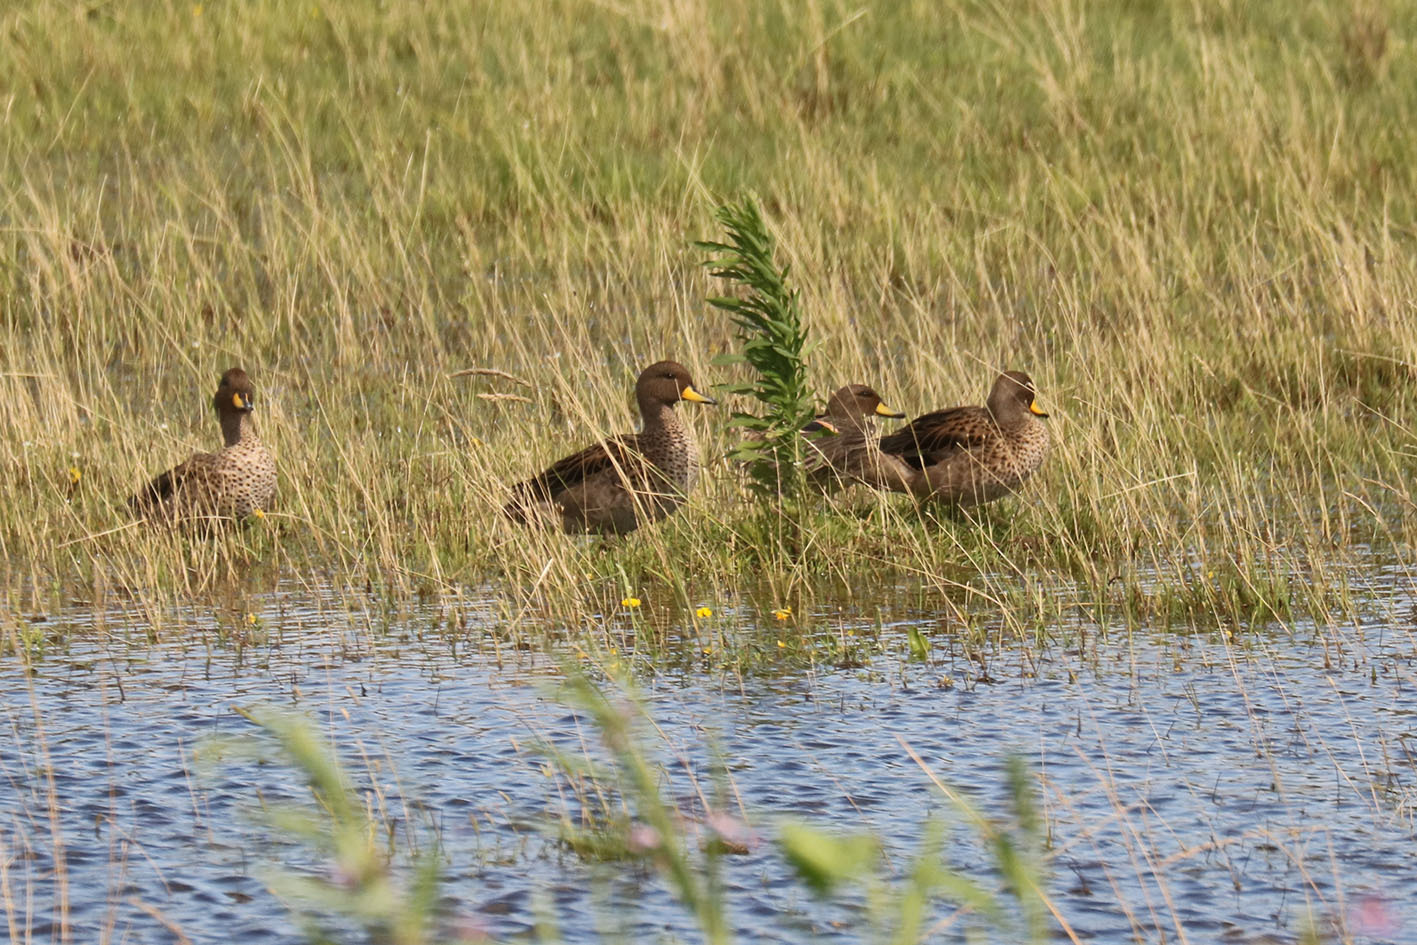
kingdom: Animalia
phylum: Chordata
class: Aves
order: Anseriformes
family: Anatidae
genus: Anas
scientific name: Anas flavirostris
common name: Yellow-billed teal
